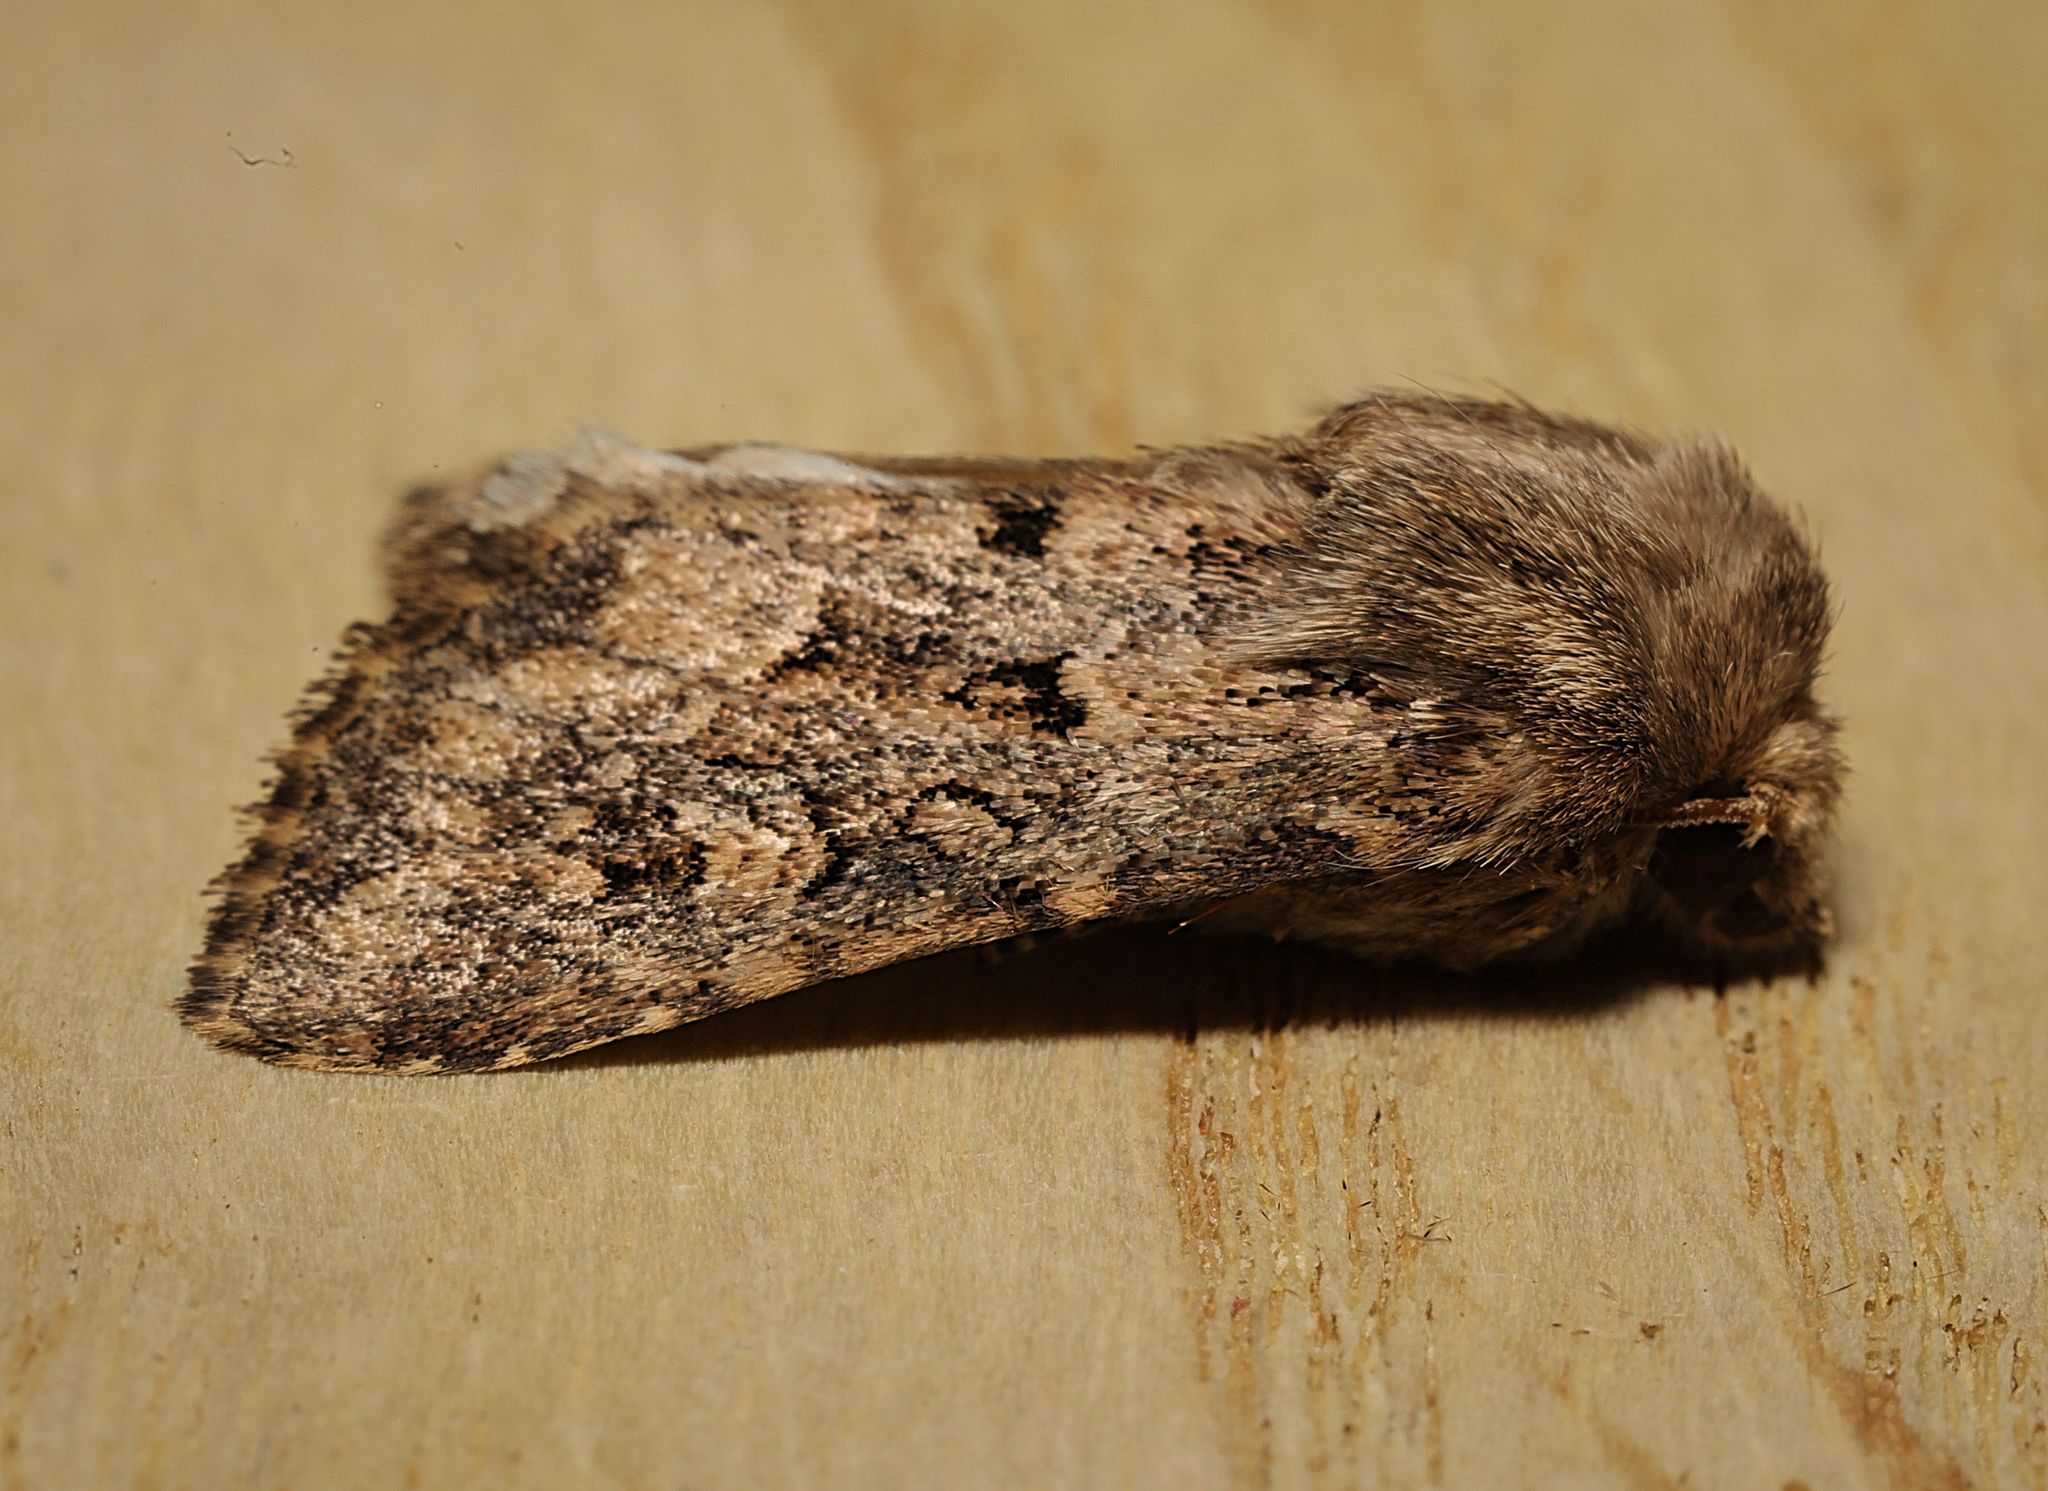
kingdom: Animalia
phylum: Arthropoda
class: Insecta
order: Lepidoptera
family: Noctuidae
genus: Luperina
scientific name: Luperina testacea
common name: Flounced rustic
